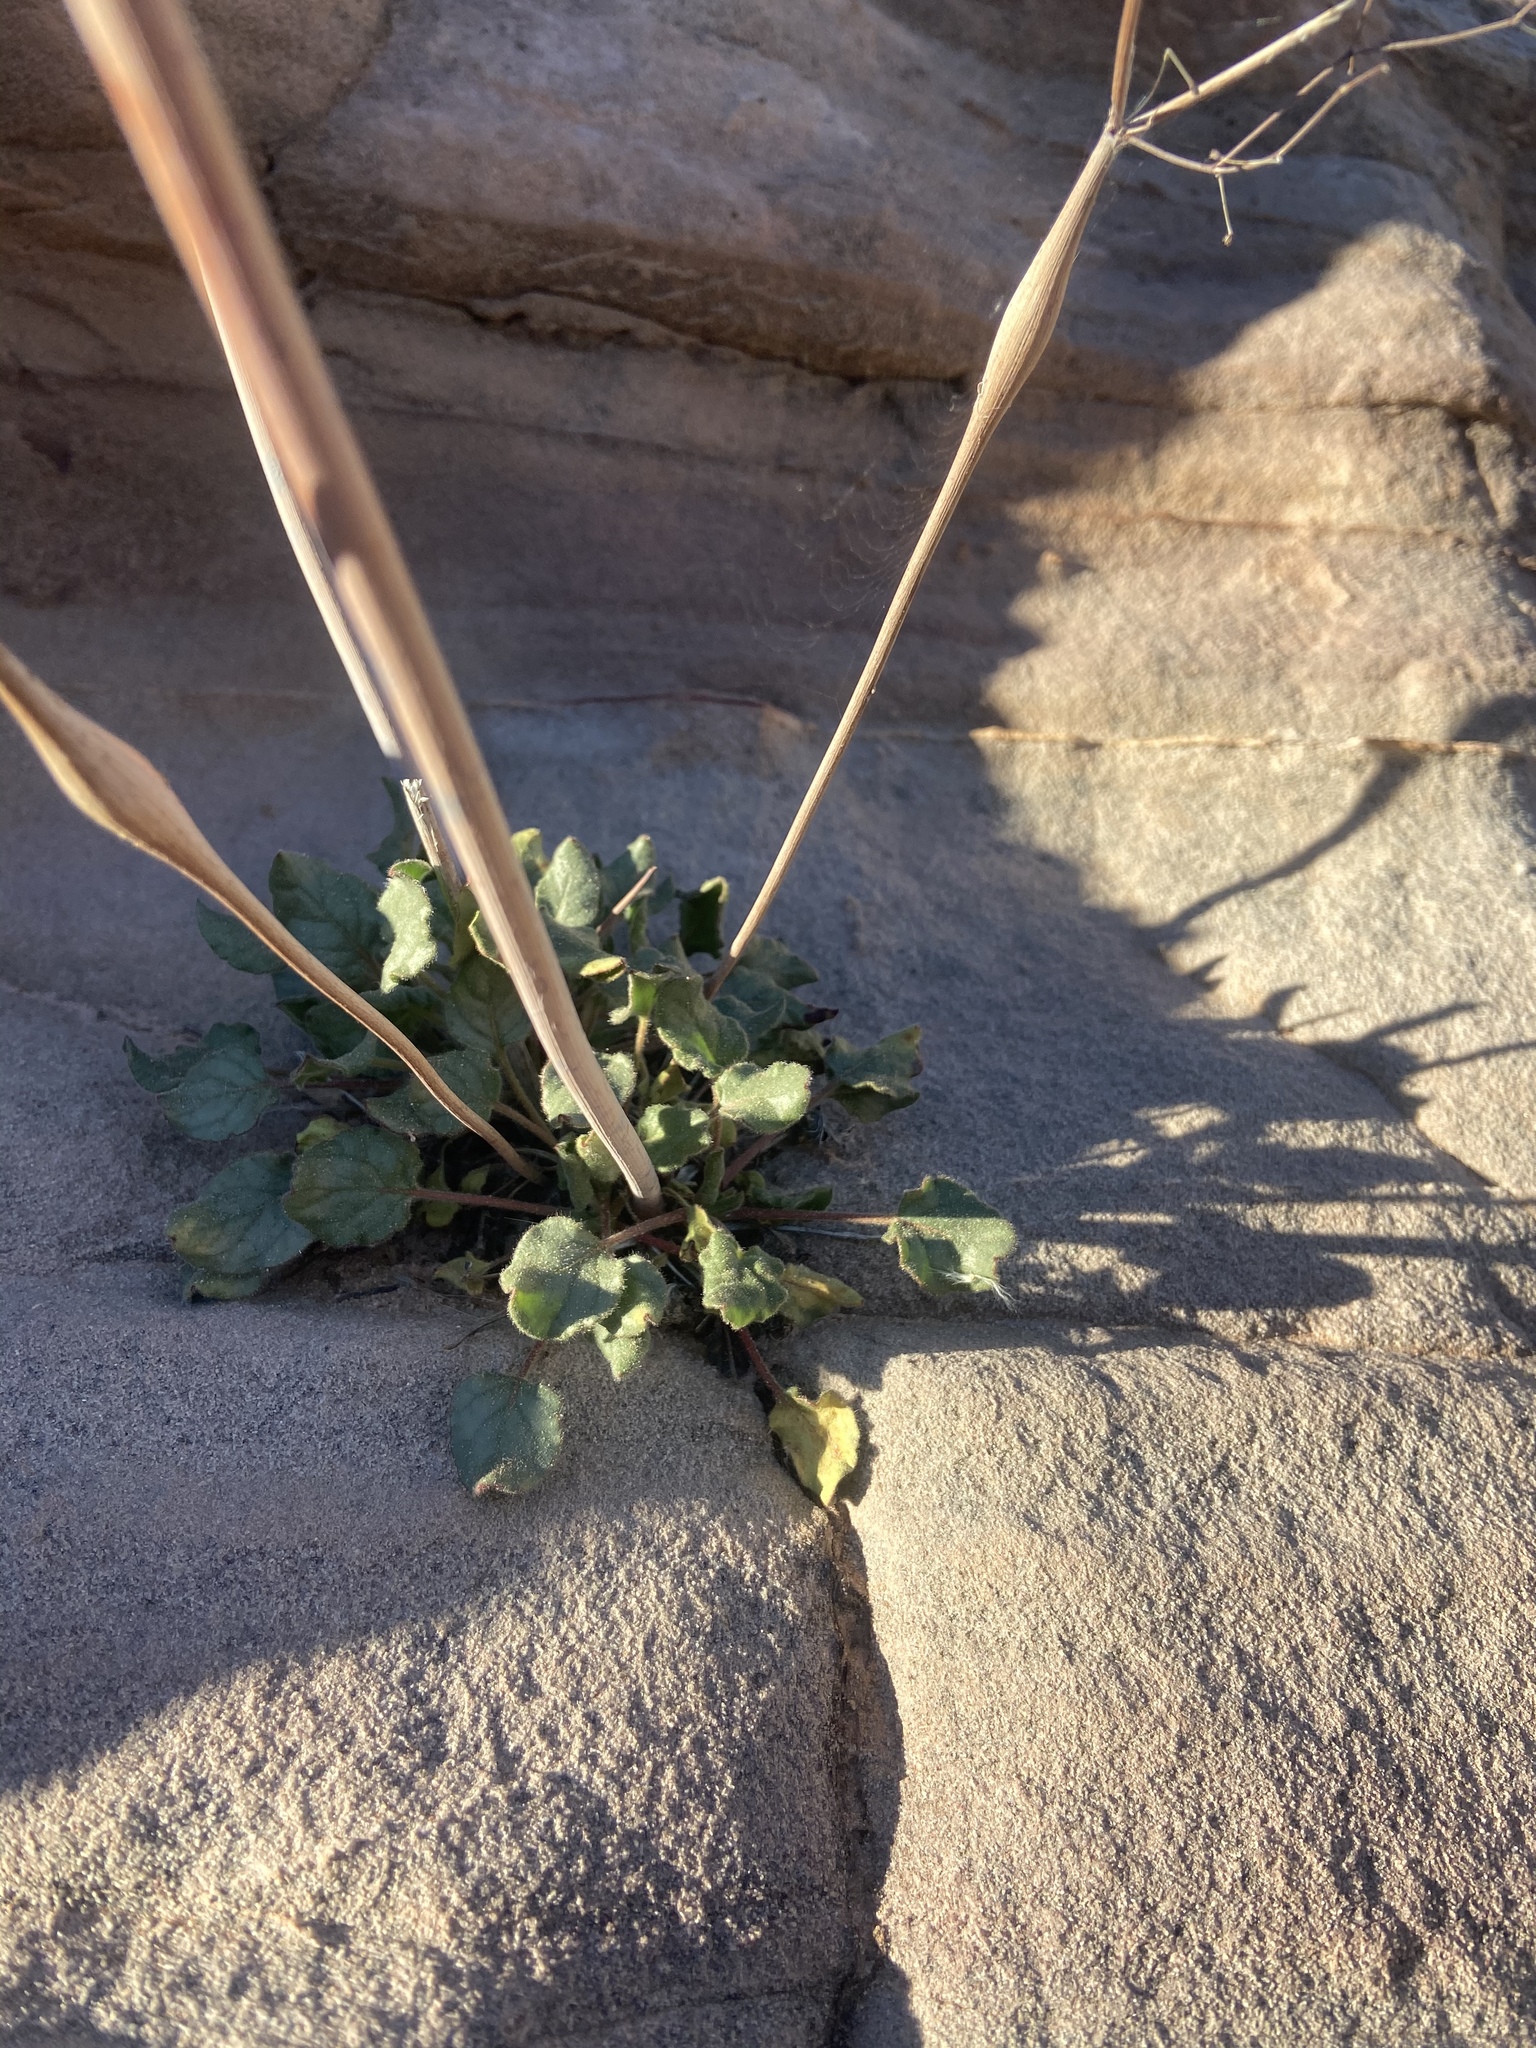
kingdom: Plantae
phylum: Tracheophyta
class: Magnoliopsida
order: Caryophyllales
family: Polygonaceae
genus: Eriogonum
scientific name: Eriogonum inflatum
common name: Desert trumpet
